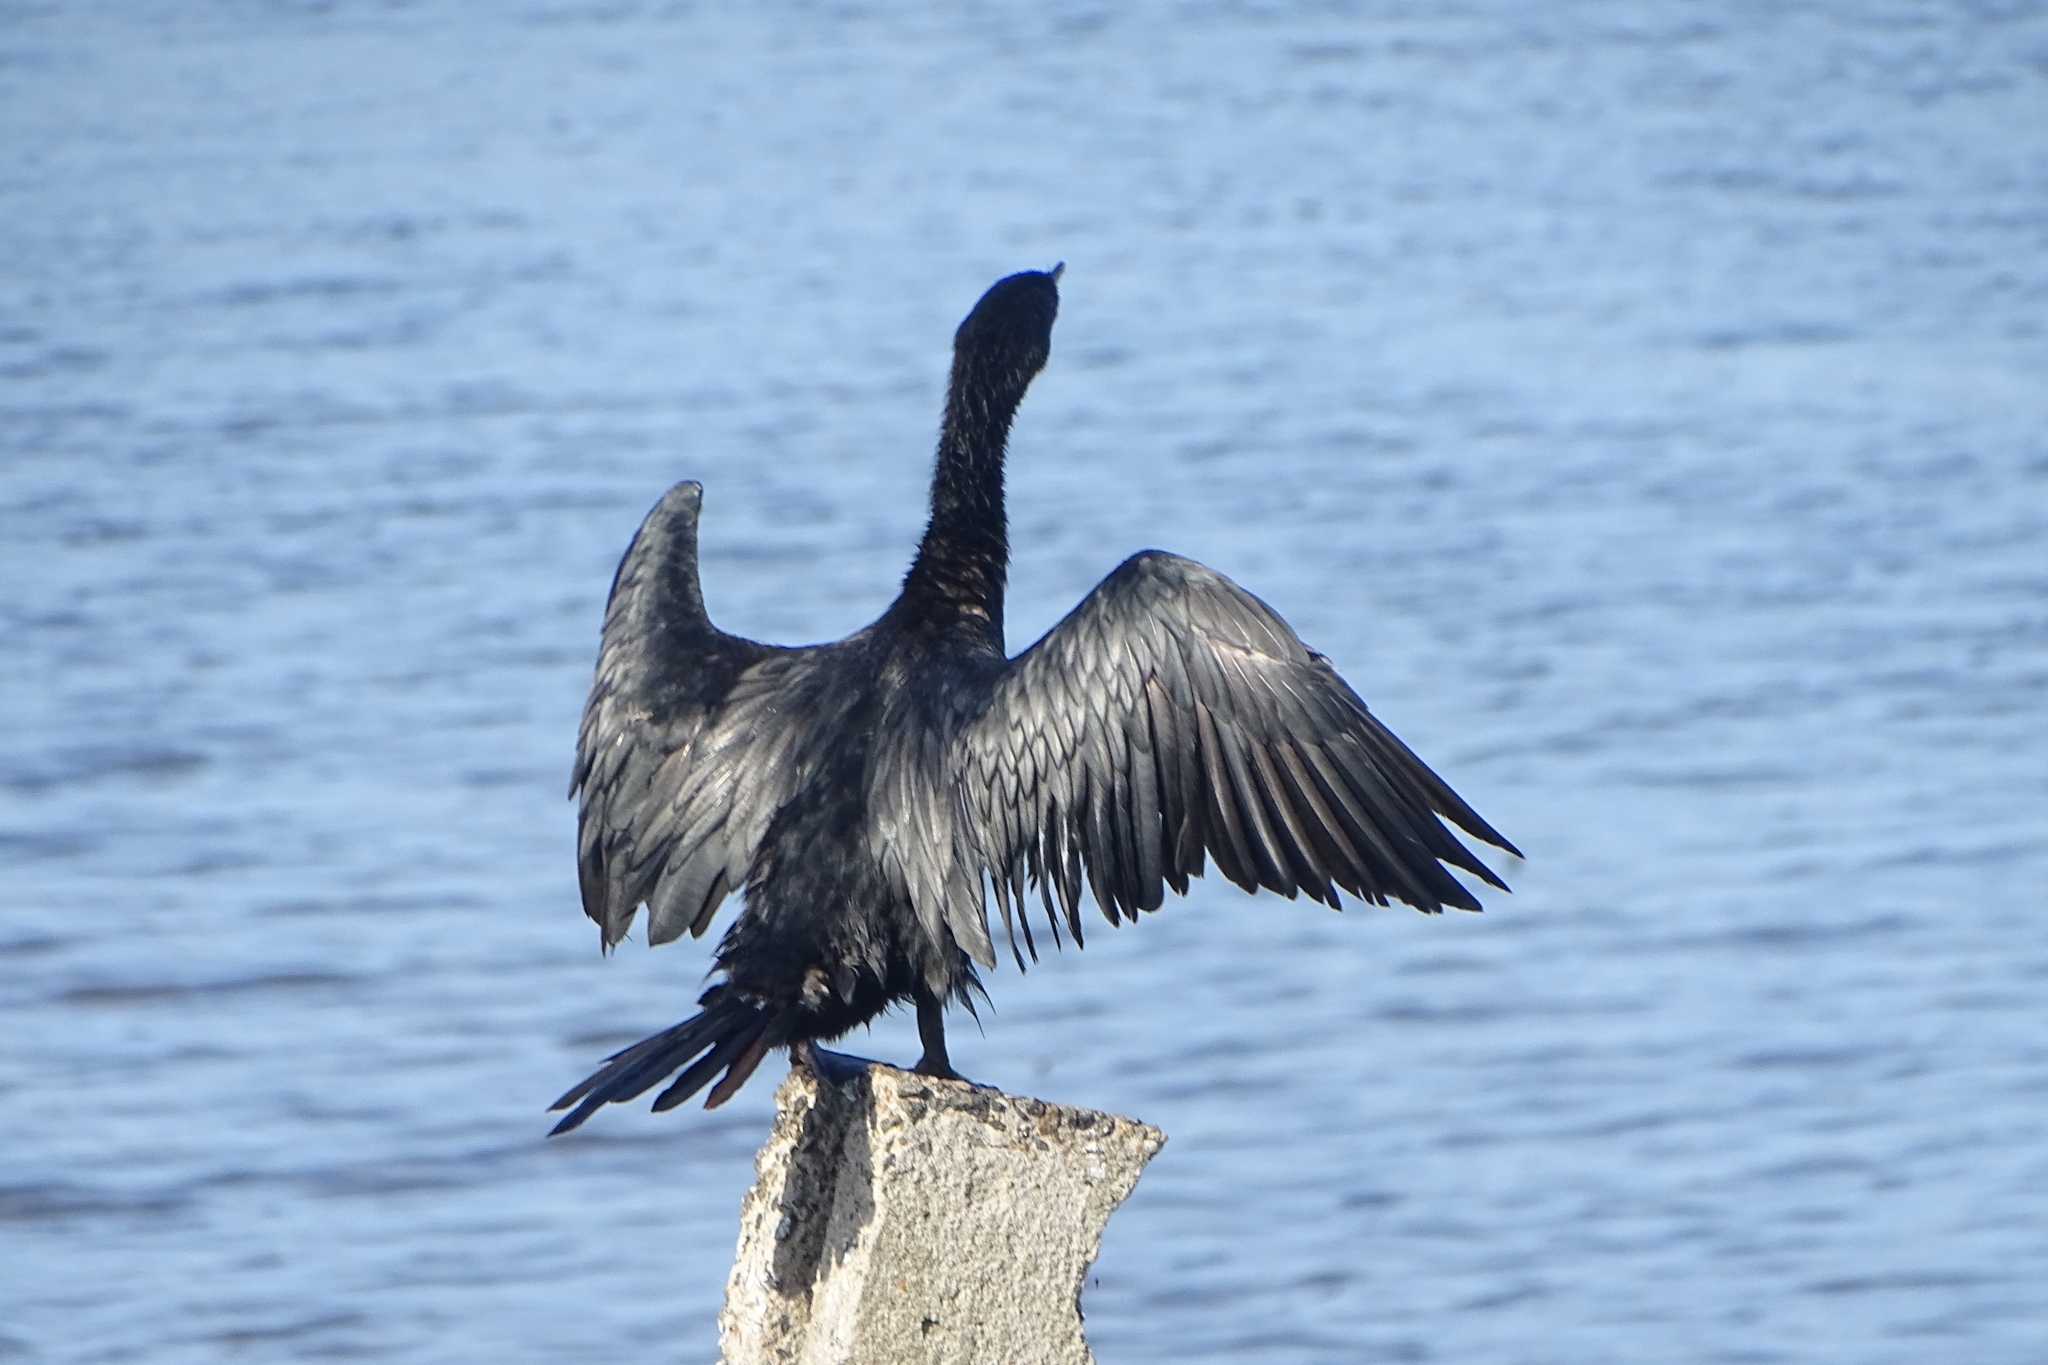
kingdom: Animalia
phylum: Chordata
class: Aves
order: Suliformes
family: Phalacrocoracidae
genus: Microcarbo
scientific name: Microcarbo niger
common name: Little cormorant
